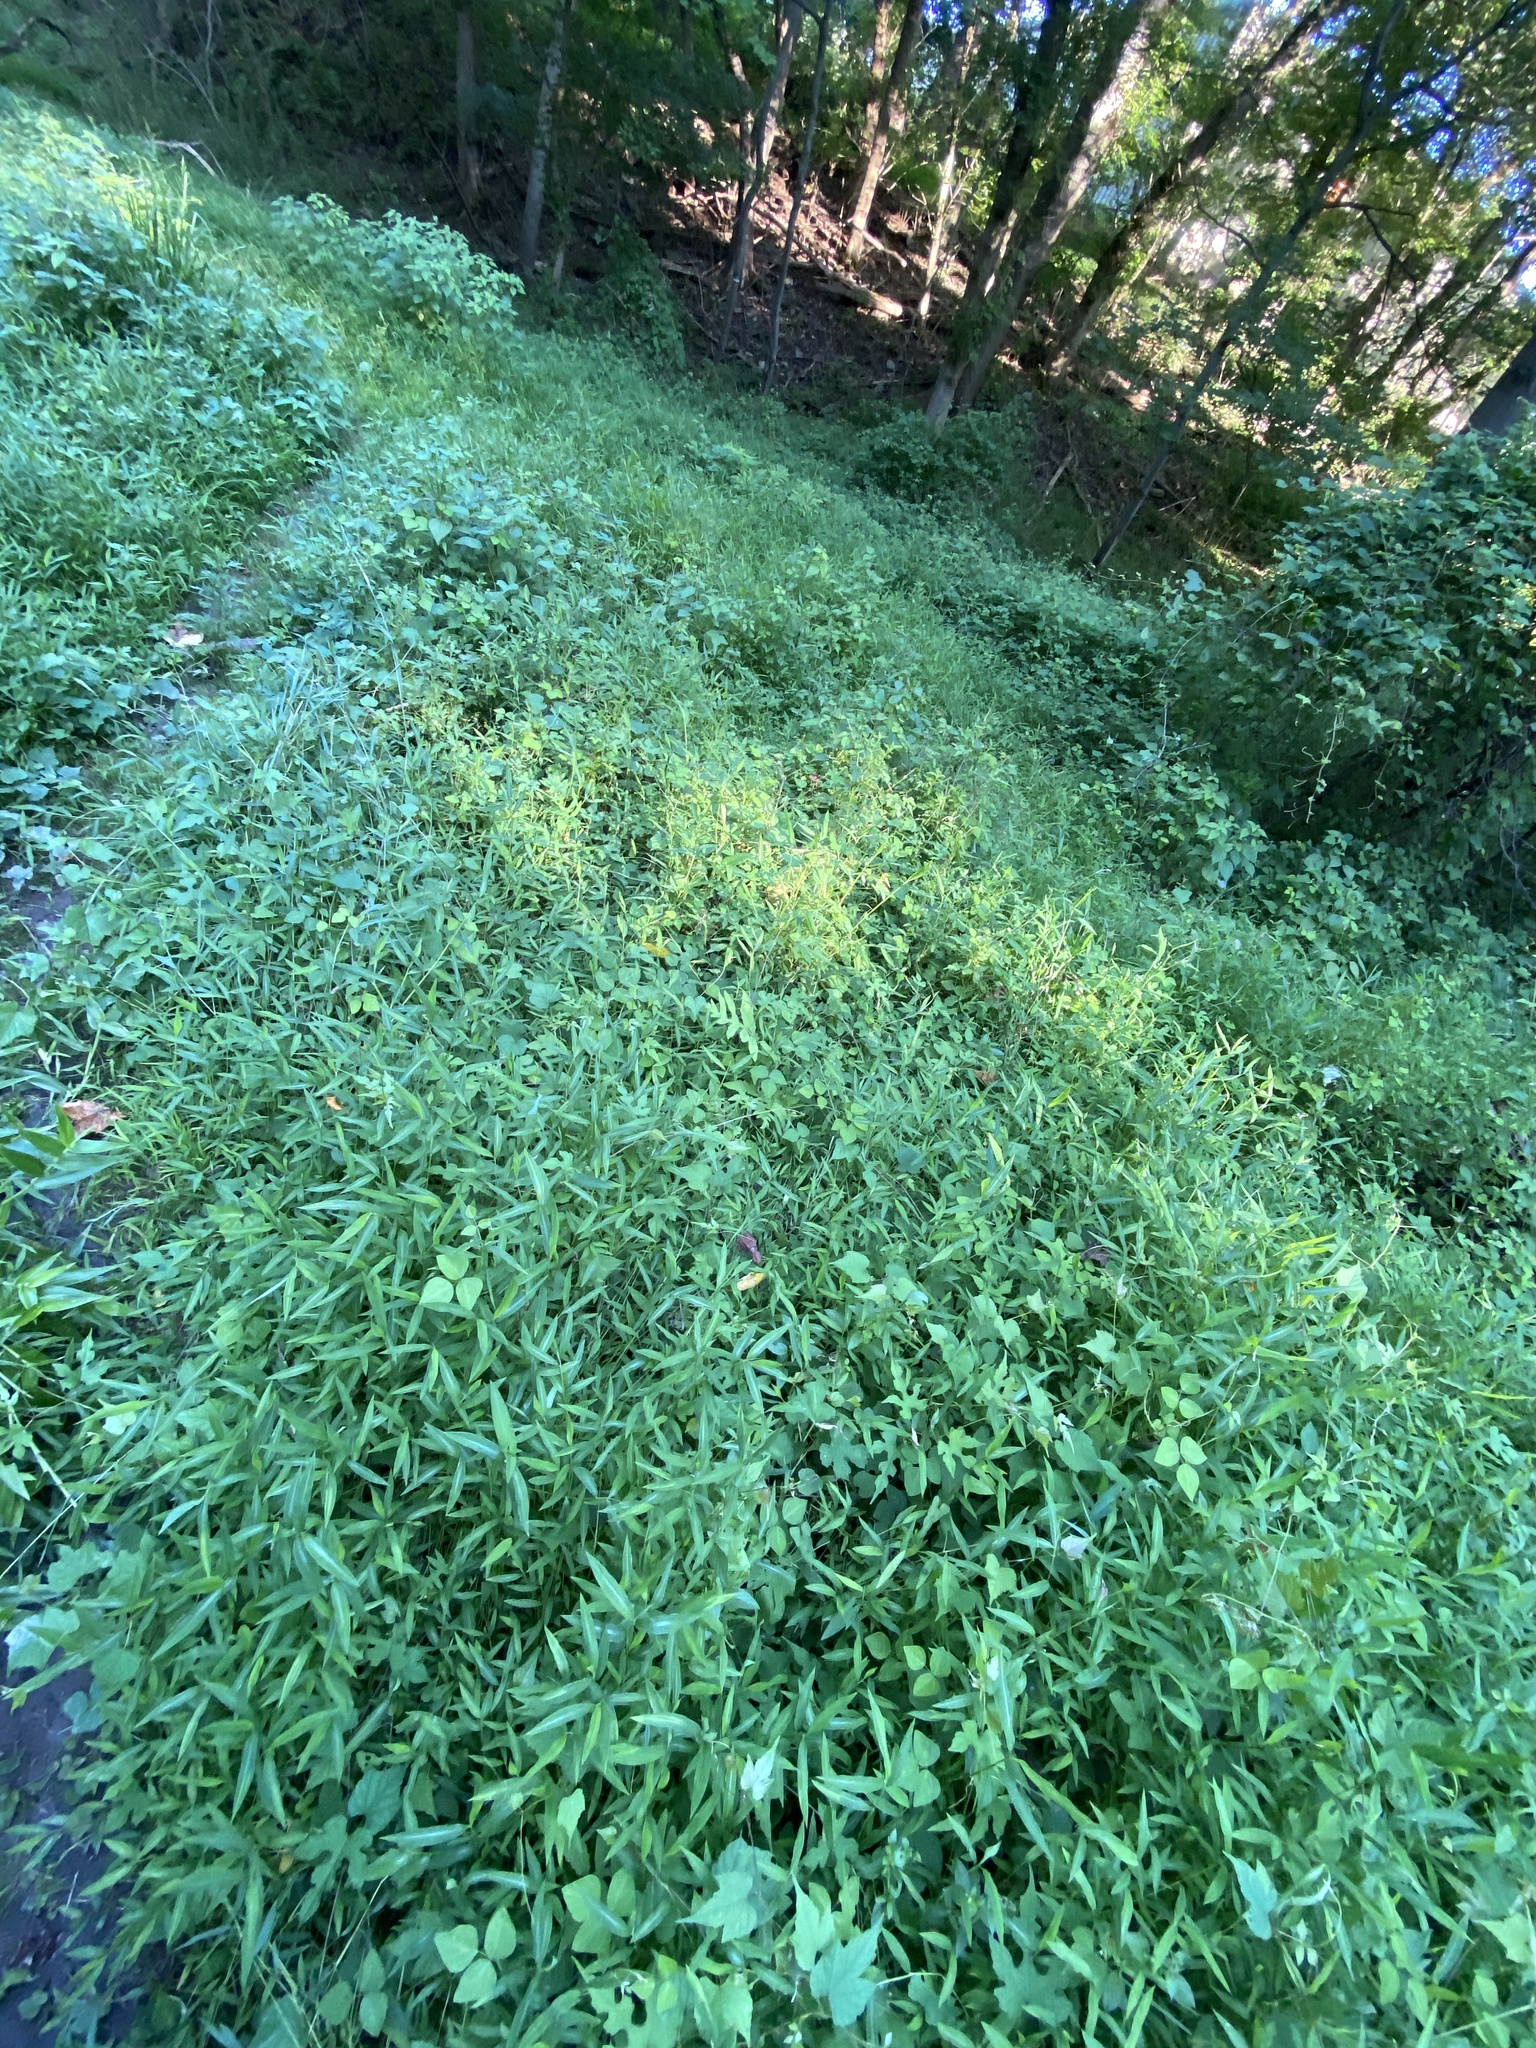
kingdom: Plantae
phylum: Tracheophyta
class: Liliopsida
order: Poales
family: Poaceae
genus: Microstegium
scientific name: Microstegium vimineum
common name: Japanese stiltgrass
